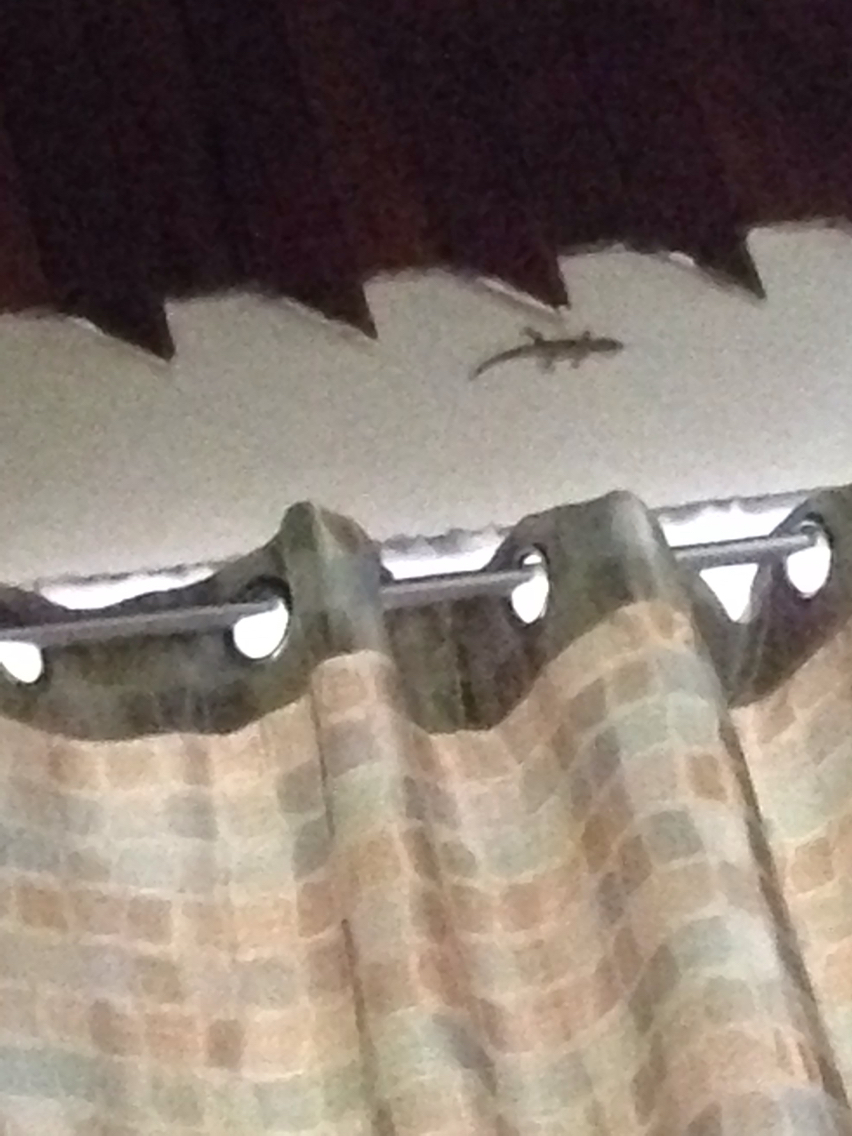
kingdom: Animalia
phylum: Chordata
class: Squamata
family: Gekkonidae
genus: Hemidactylus
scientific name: Hemidactylus frenatus
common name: Common house gecko
